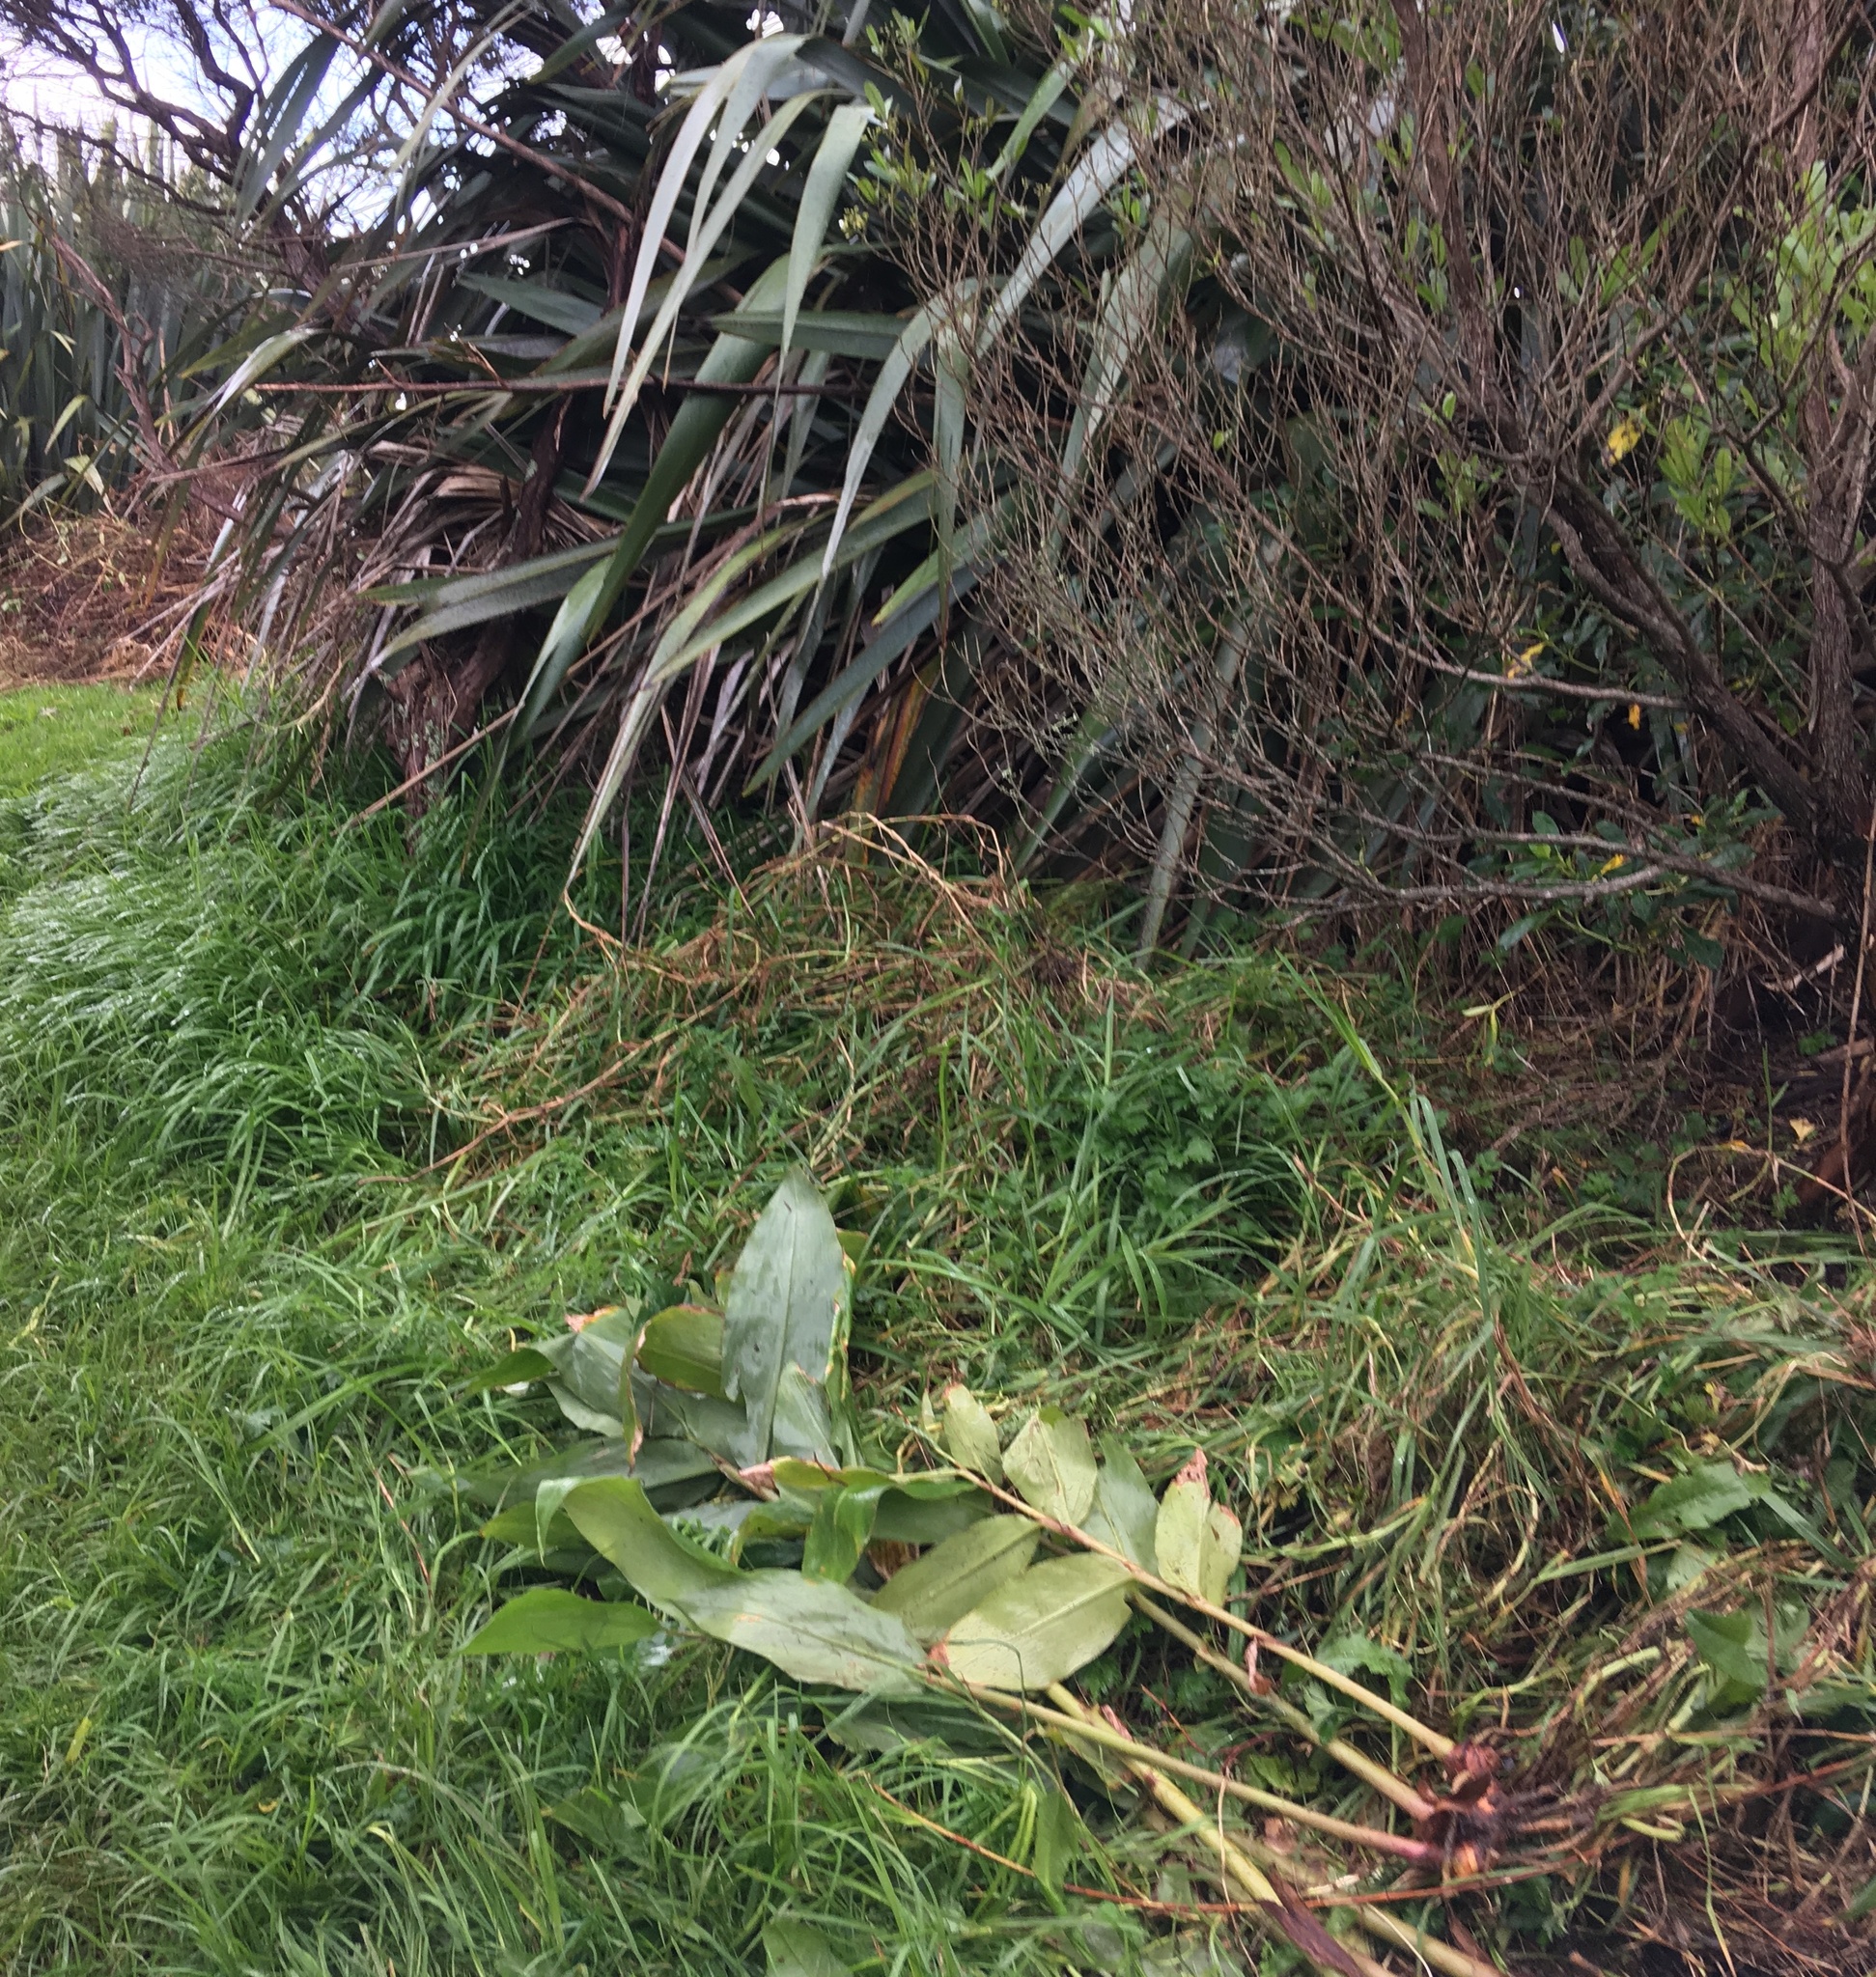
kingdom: Plantae
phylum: Tracheophyta
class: Liliopsida
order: Poales
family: Poaceae
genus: Cenchrus
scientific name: Cenchrus clandestinus
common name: Kikuyugrass
